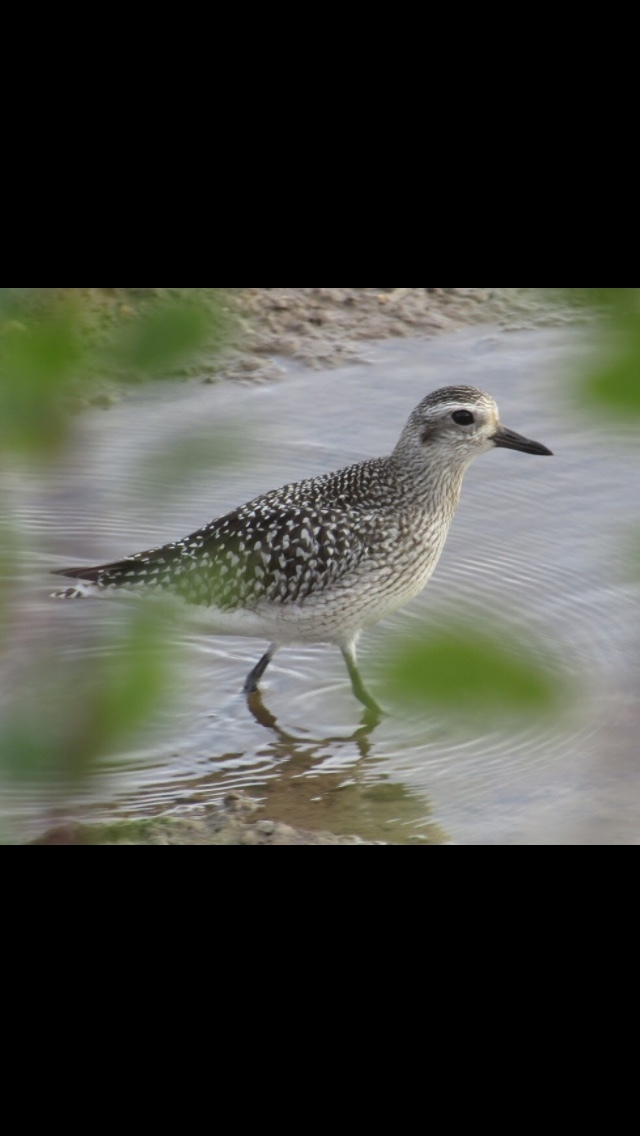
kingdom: Animalia
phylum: Chordata
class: Aves
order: Charadriiformes
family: Charadriidae
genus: Pluvialis
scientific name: Pluvialis squatarola
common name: Grey plover
